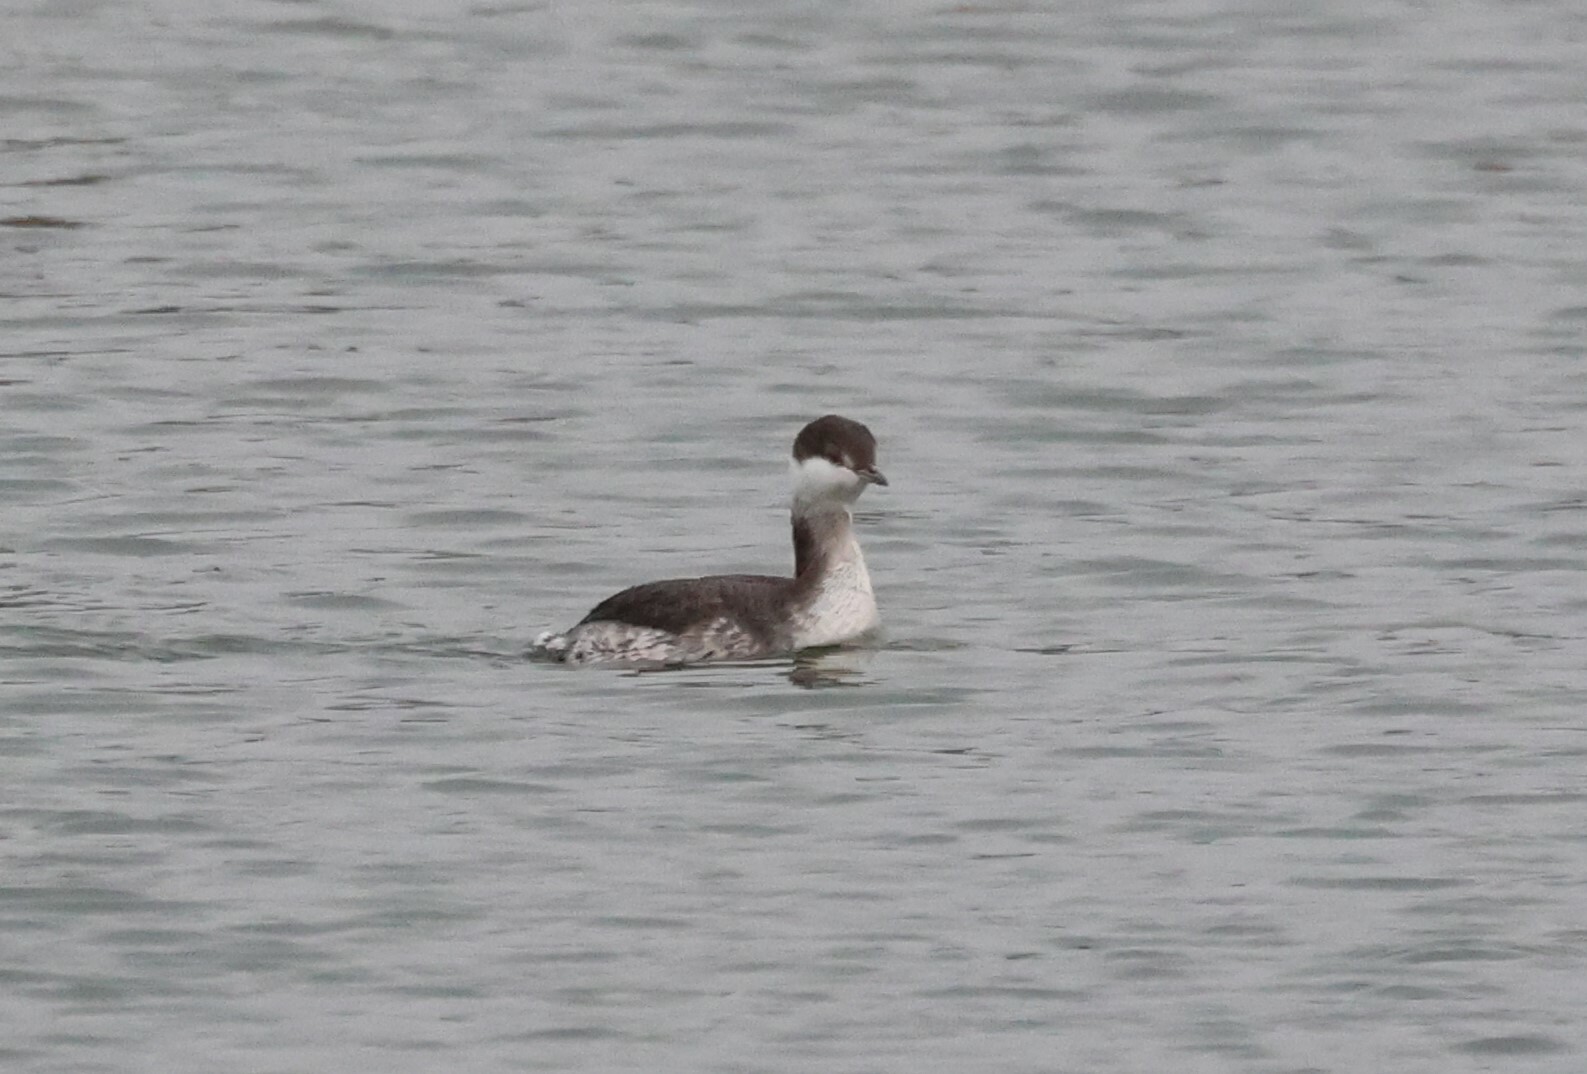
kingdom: Animalia
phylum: Chordata
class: Aves
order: Podicipediformes
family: Podicipedidae
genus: Podiceps
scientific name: Podiceps auritus
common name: Horned grebe
